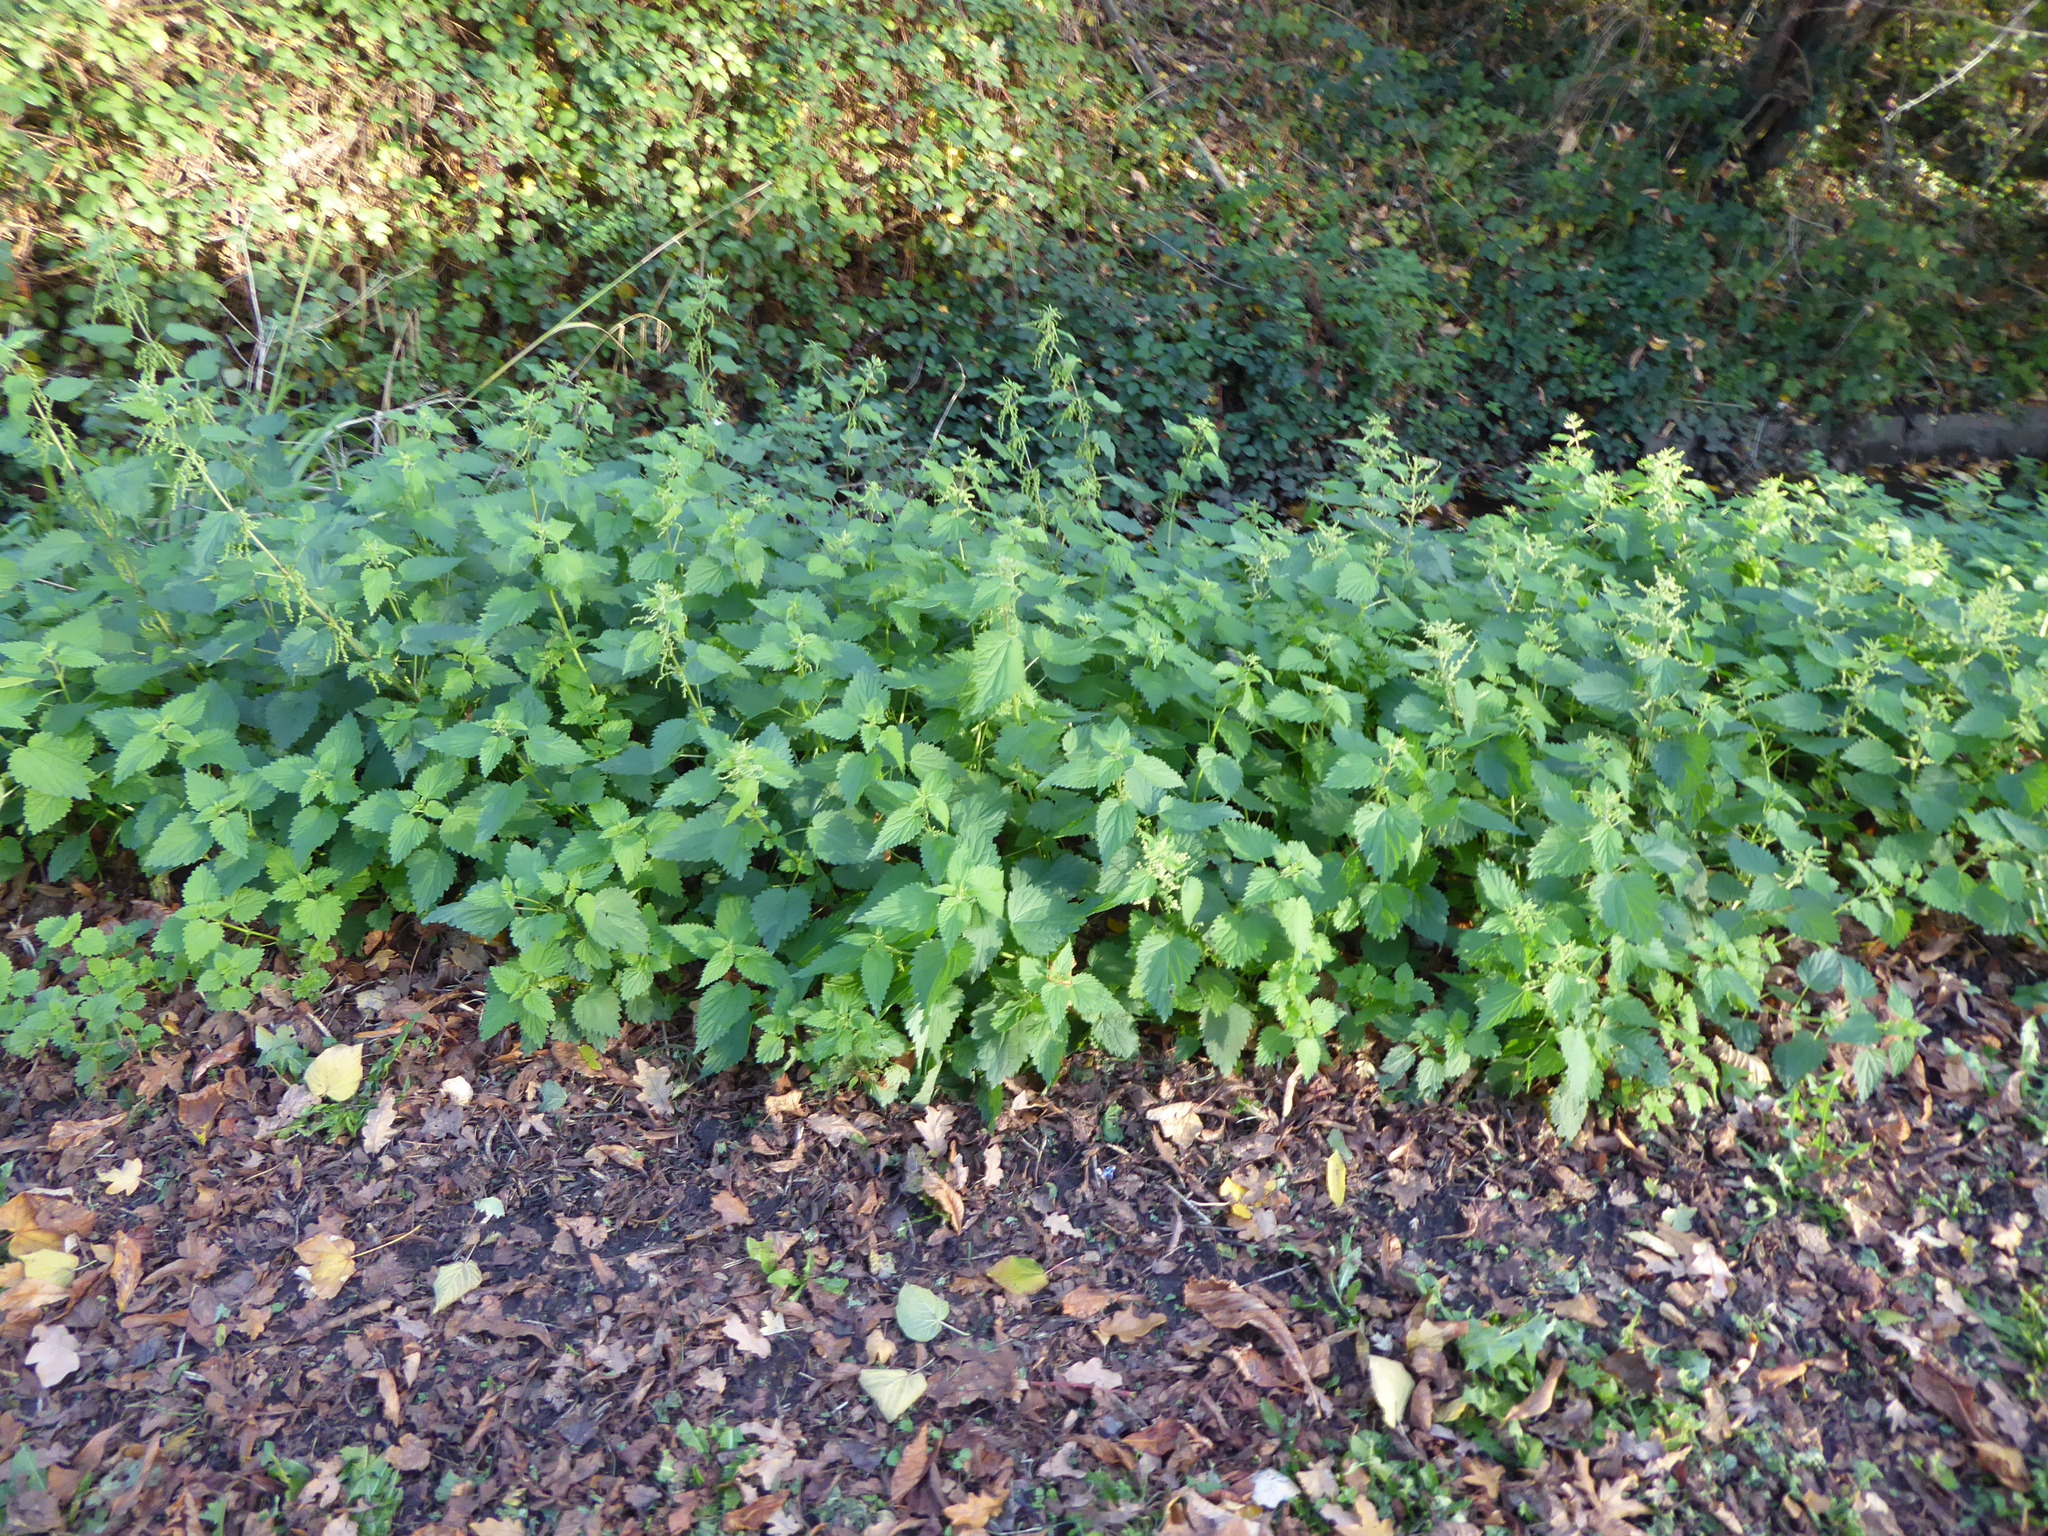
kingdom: Plantae
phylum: Tracheophyta
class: Magnoliopsida
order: Rosales
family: Urticaceae
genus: Urtica
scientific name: Urtica dioica
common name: Common nettle
